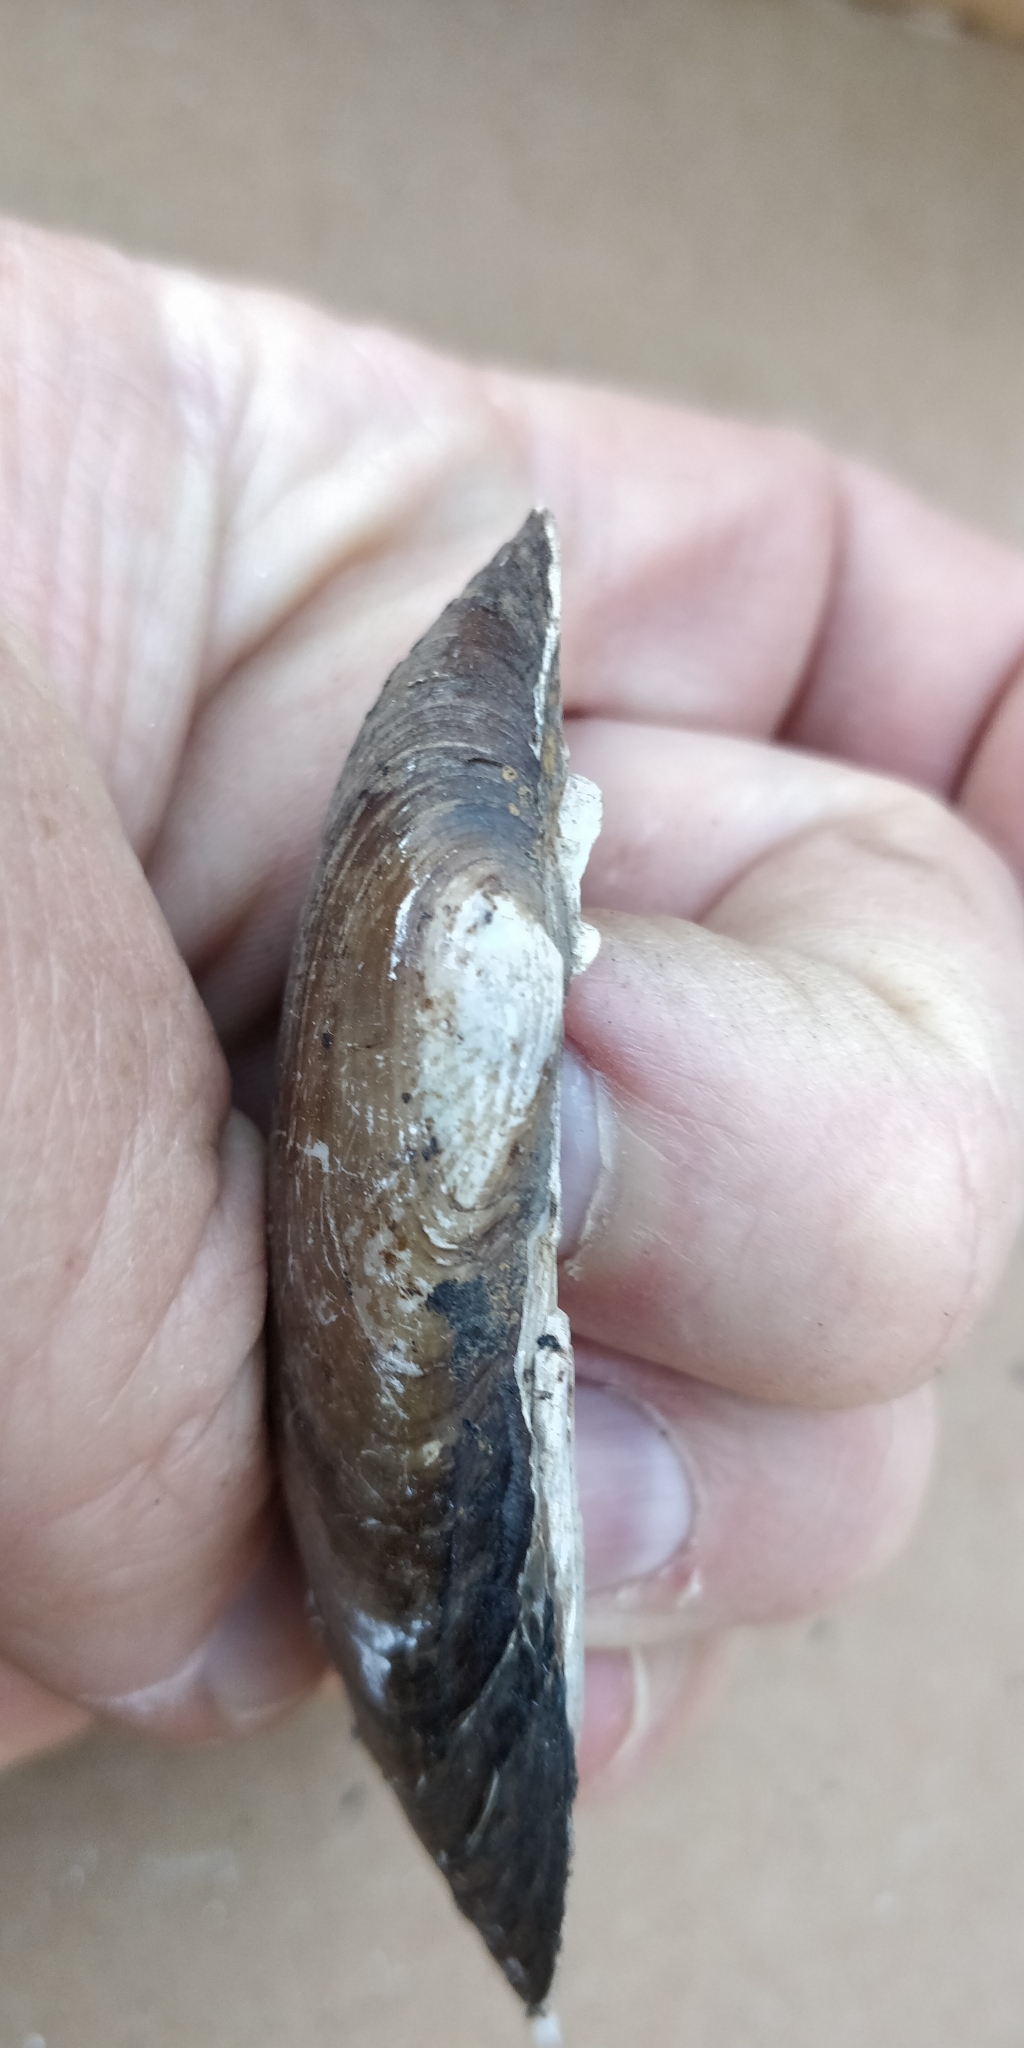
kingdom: Animalia
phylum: Mollusca
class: Bivalvia
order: Unionida
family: Unionidae
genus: Lampsilis
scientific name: Lampsilis teres
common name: Yellow sandshell
